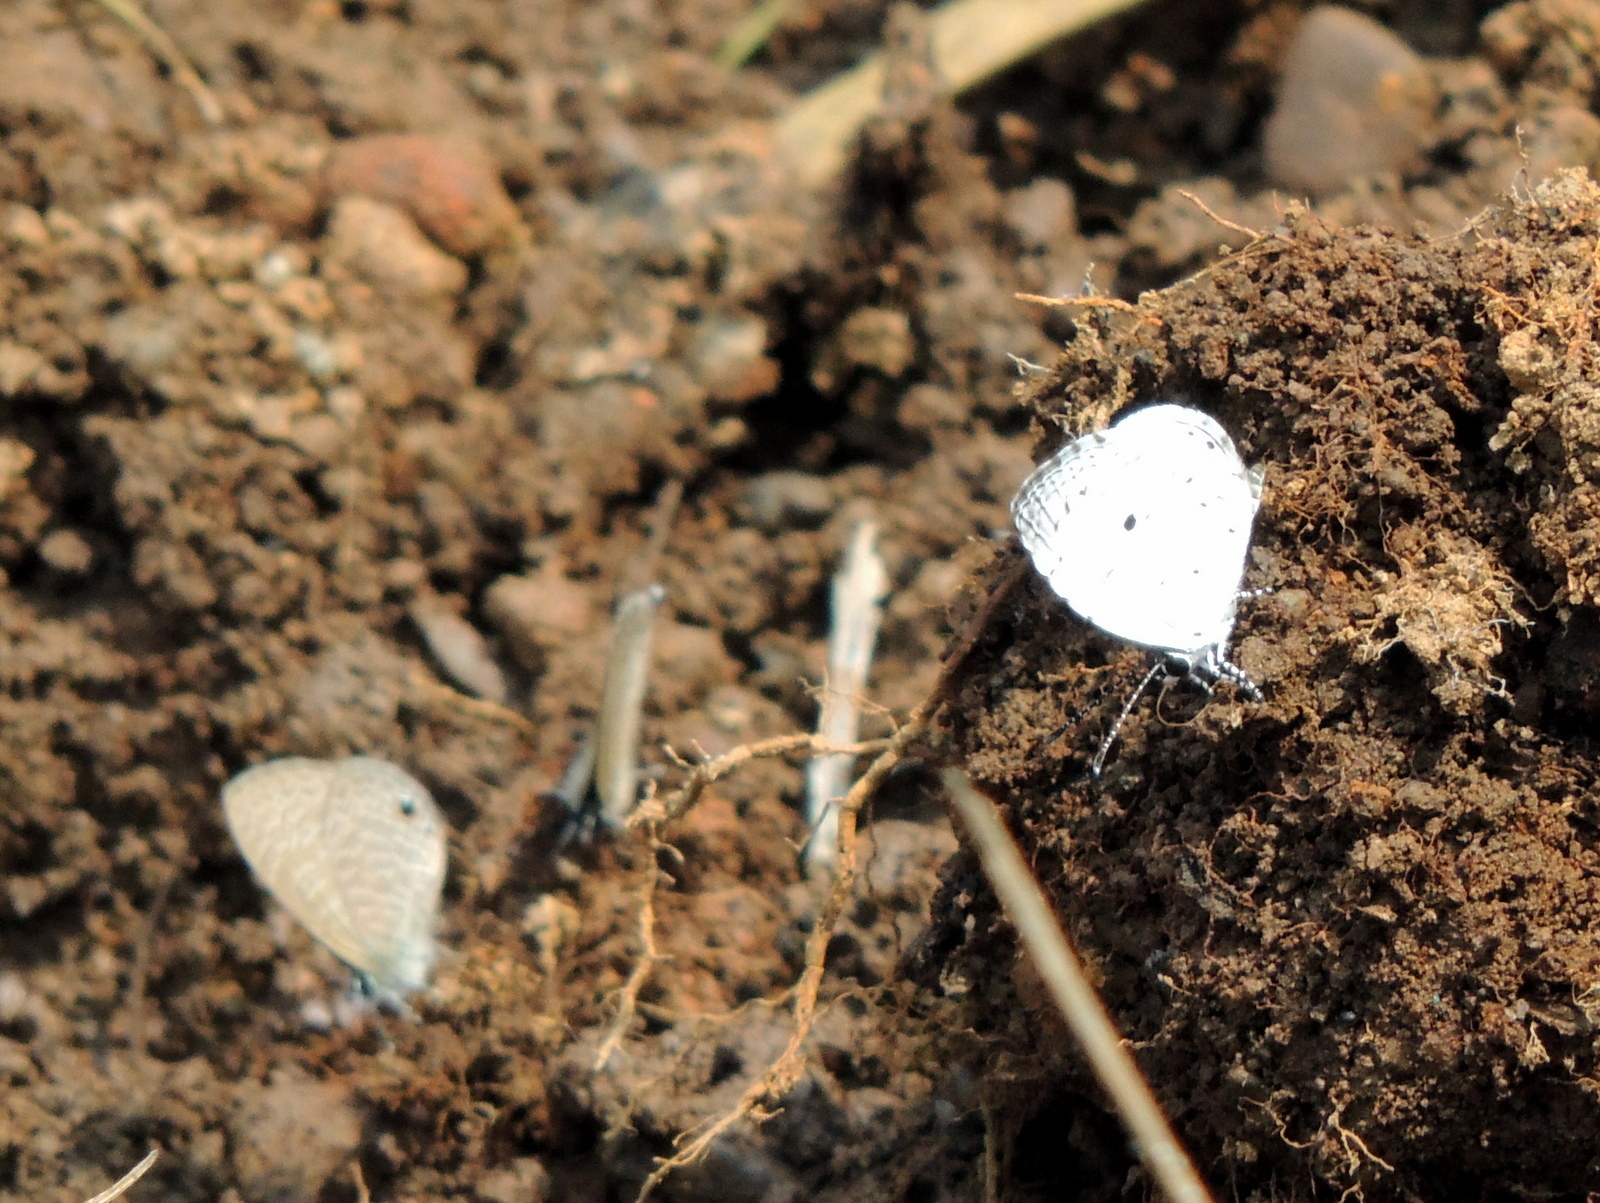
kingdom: Animalia
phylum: Arthropoda
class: Insecta
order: Lepidoptera
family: Lycaenidae
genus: Neopithecops
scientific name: Neopithecops zalmora
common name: Quaker
